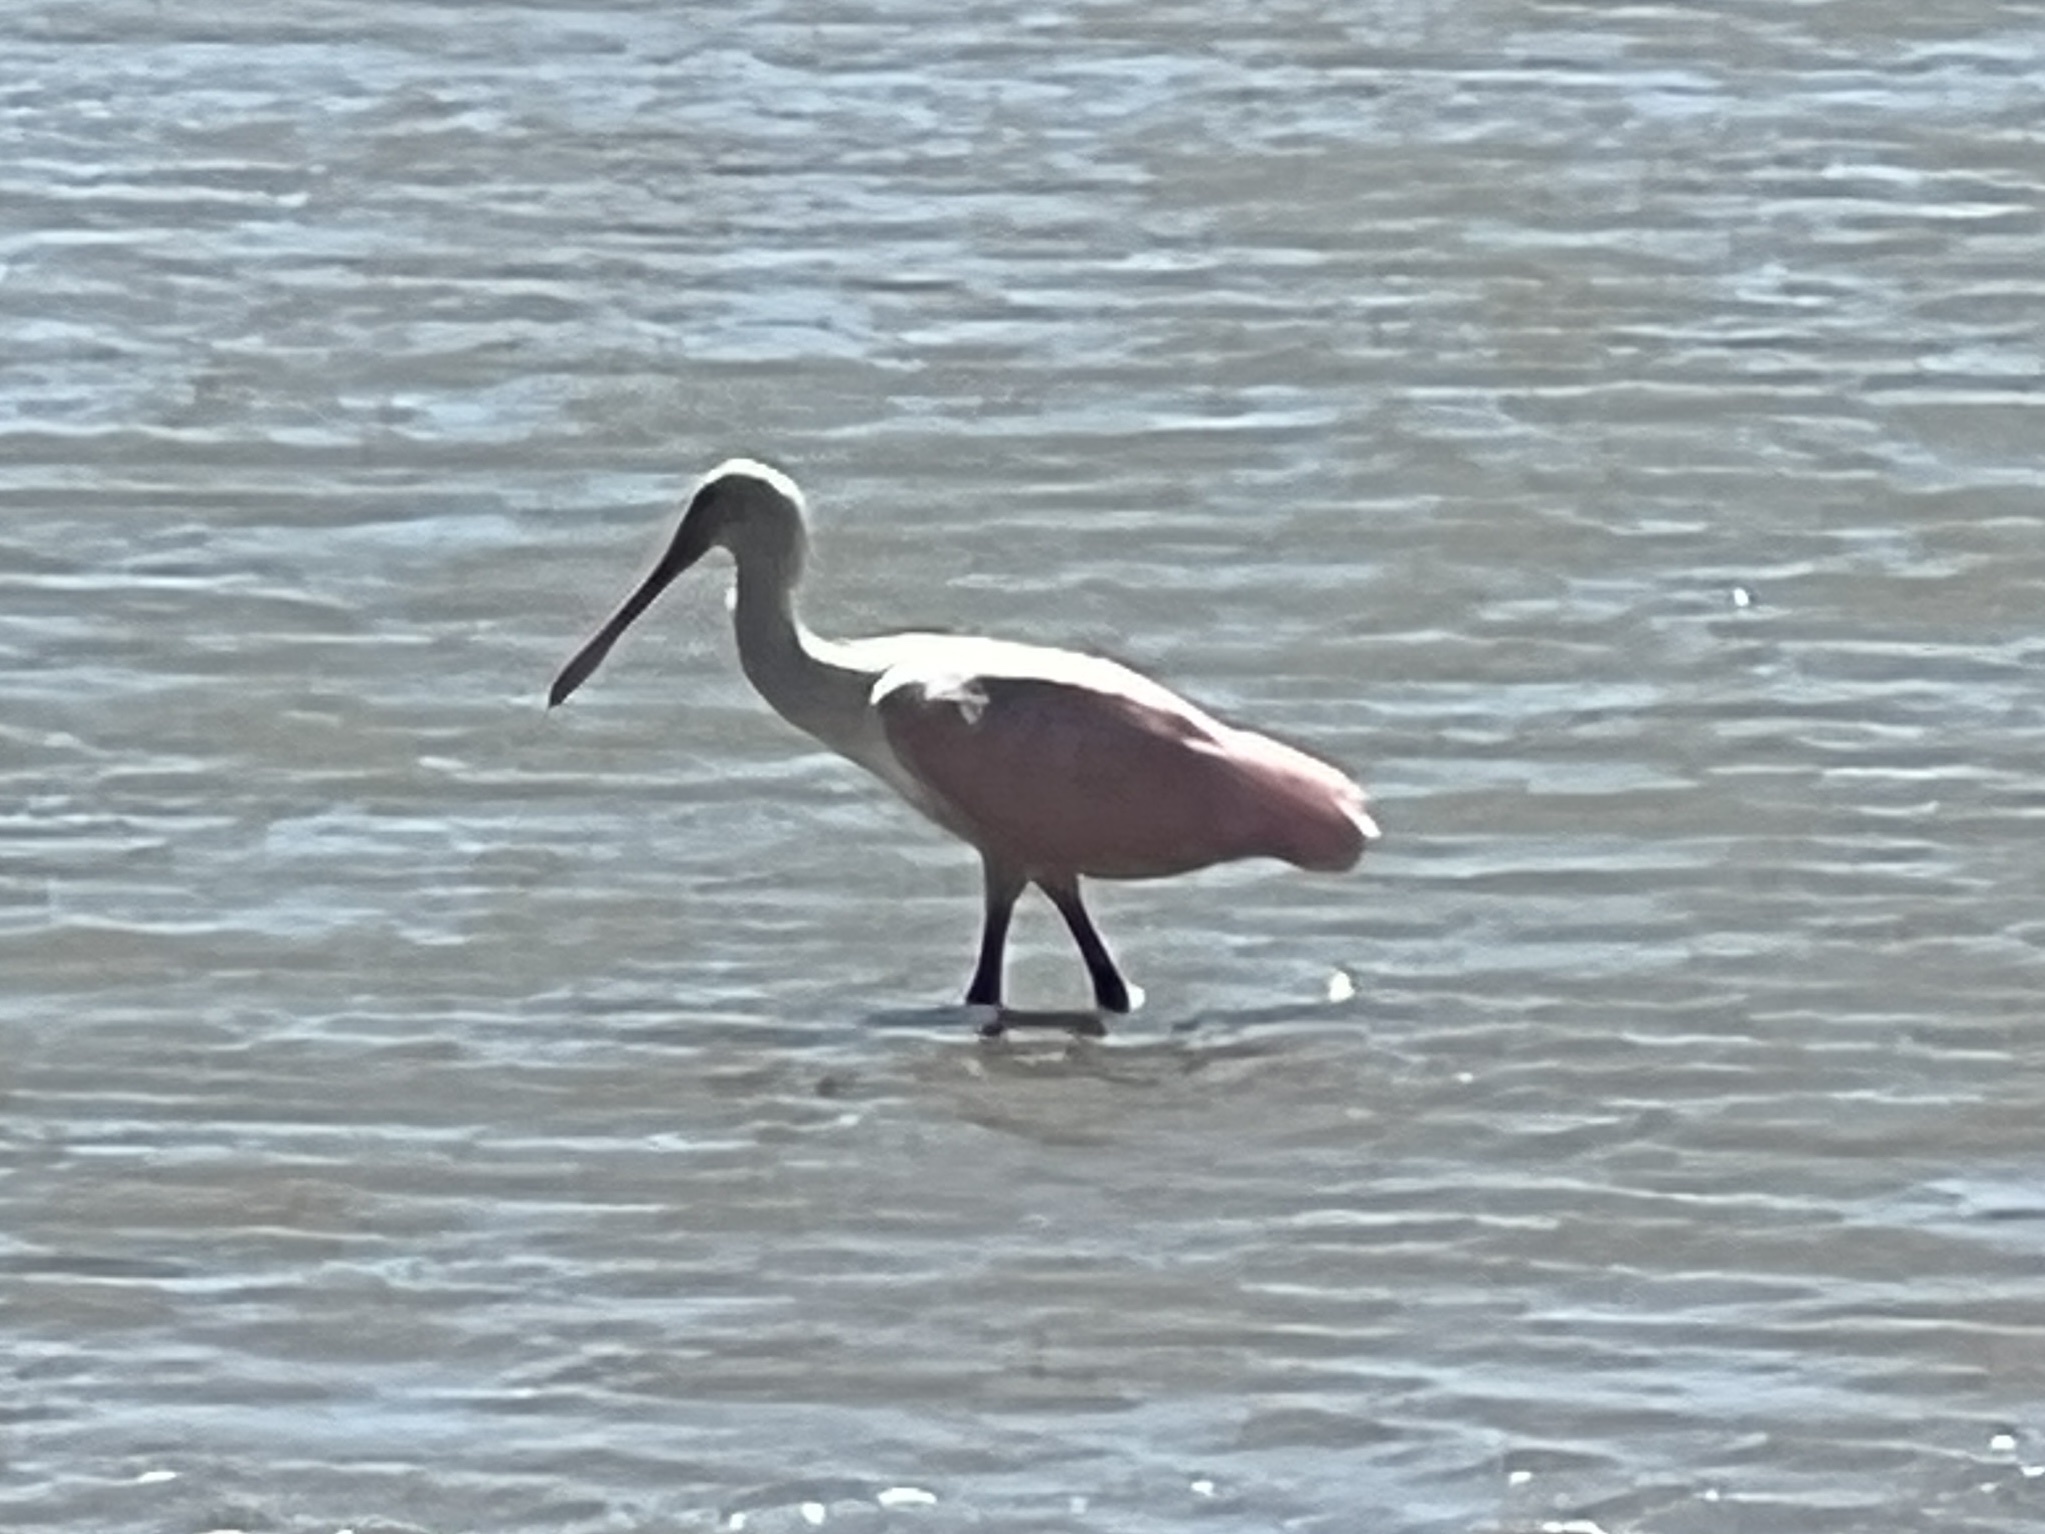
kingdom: Animalia
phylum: Chordata
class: Aves
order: Pelecaniformes
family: Threskiornithidae
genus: Platalea
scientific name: Platalea ajaja
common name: Roseate spoonbill
